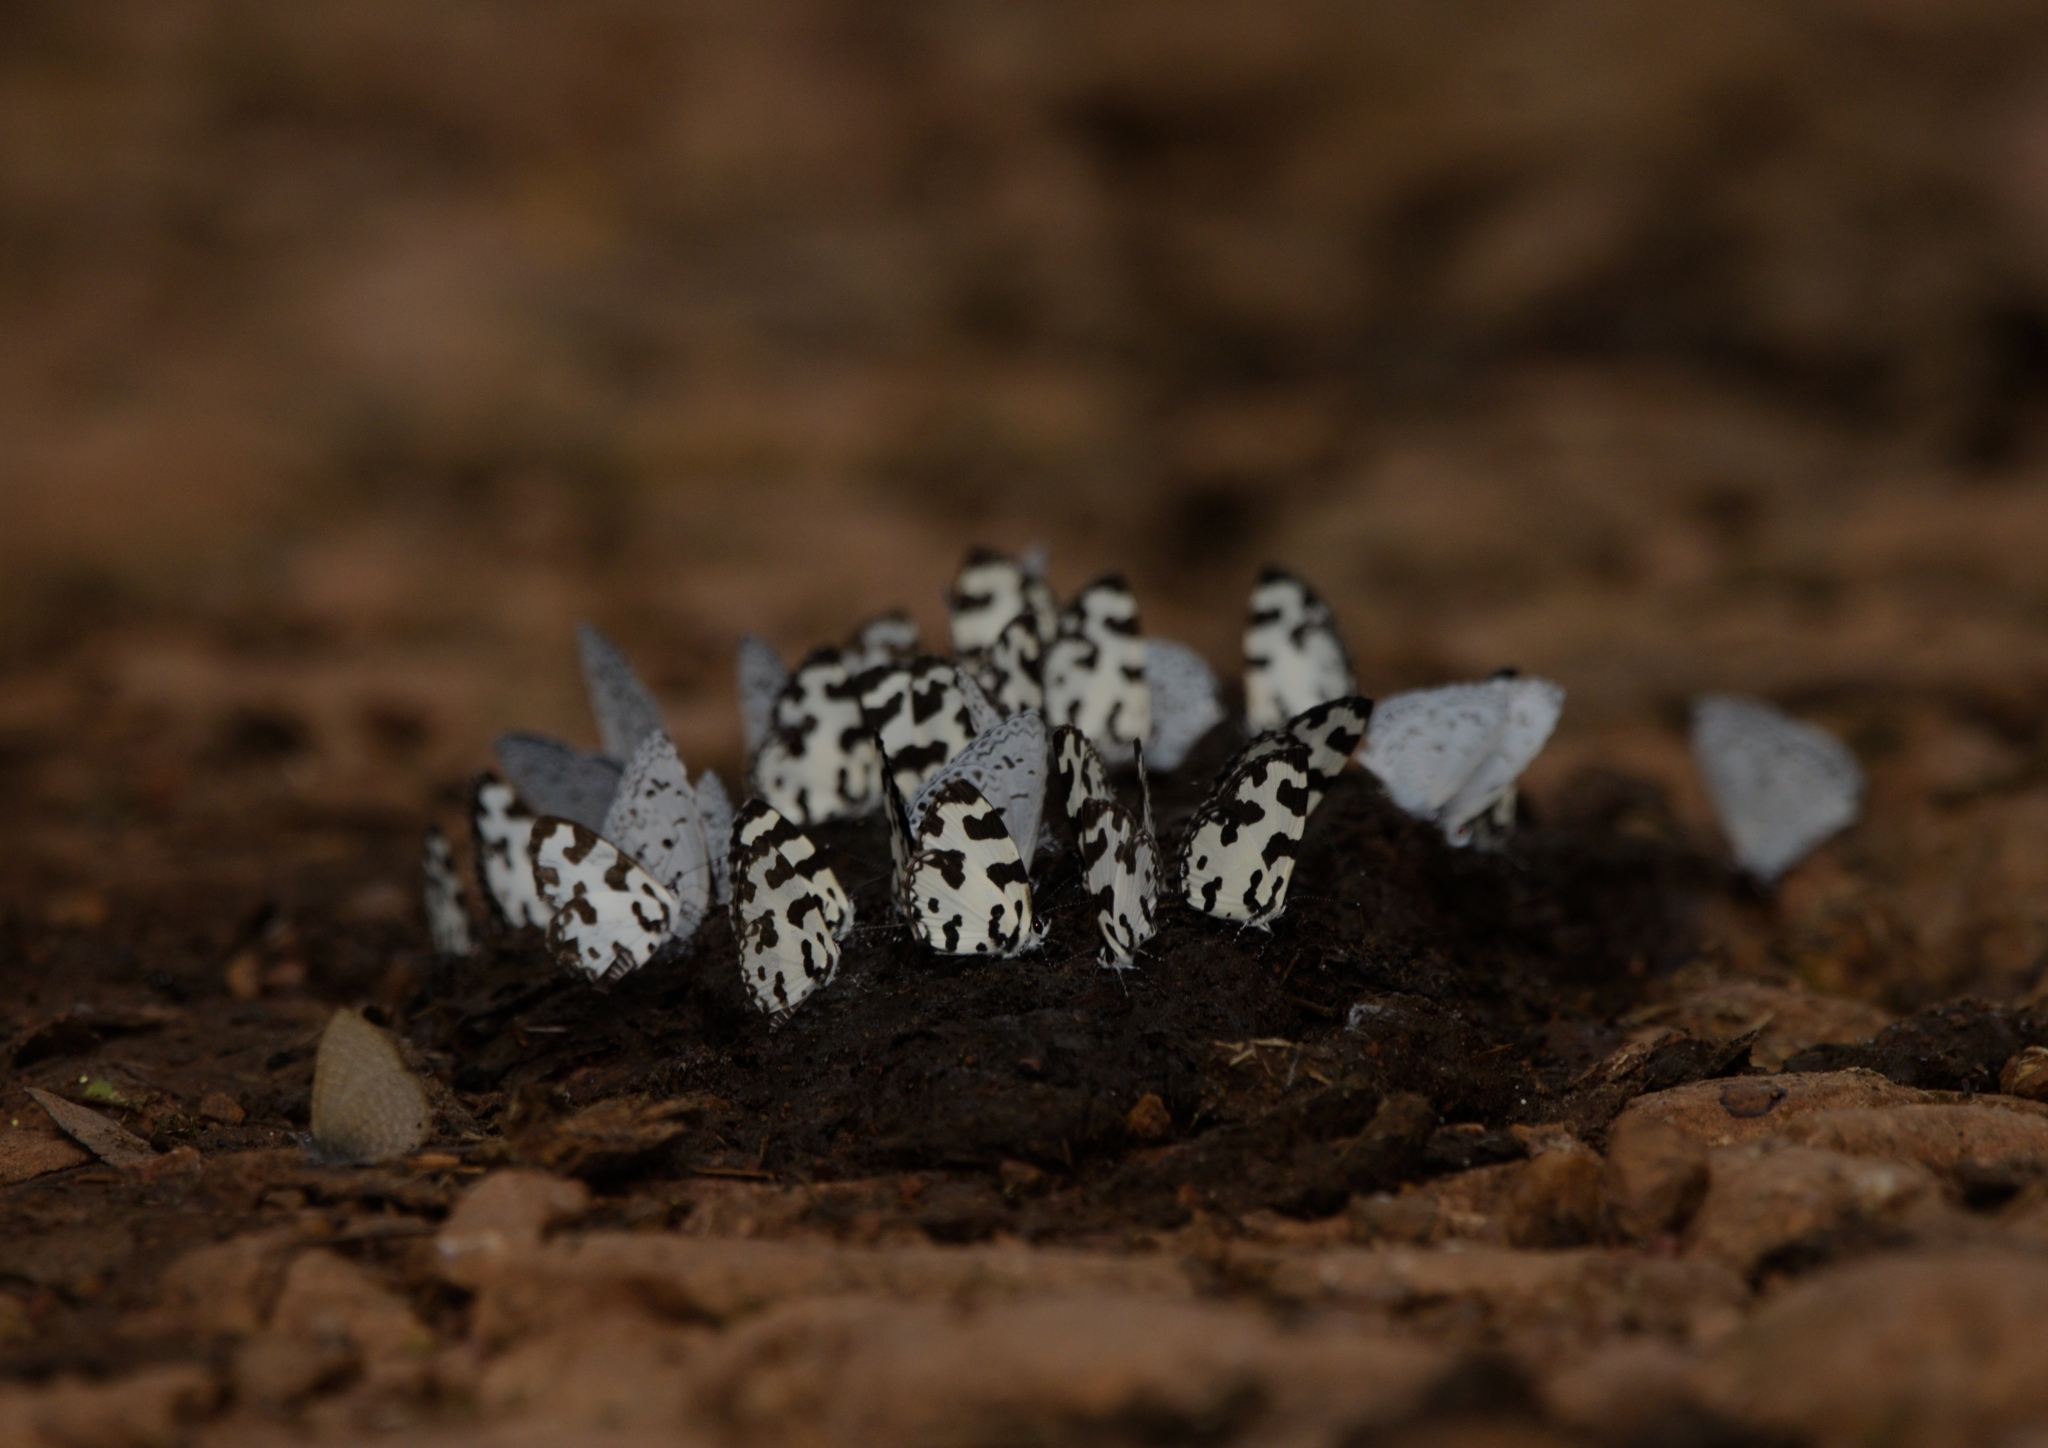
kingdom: Animalia
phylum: Arthropoda
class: Insecta
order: Lepidoptera
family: Lycaenidae
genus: Caleta
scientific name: Caleta decidia
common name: Angled pierrot
